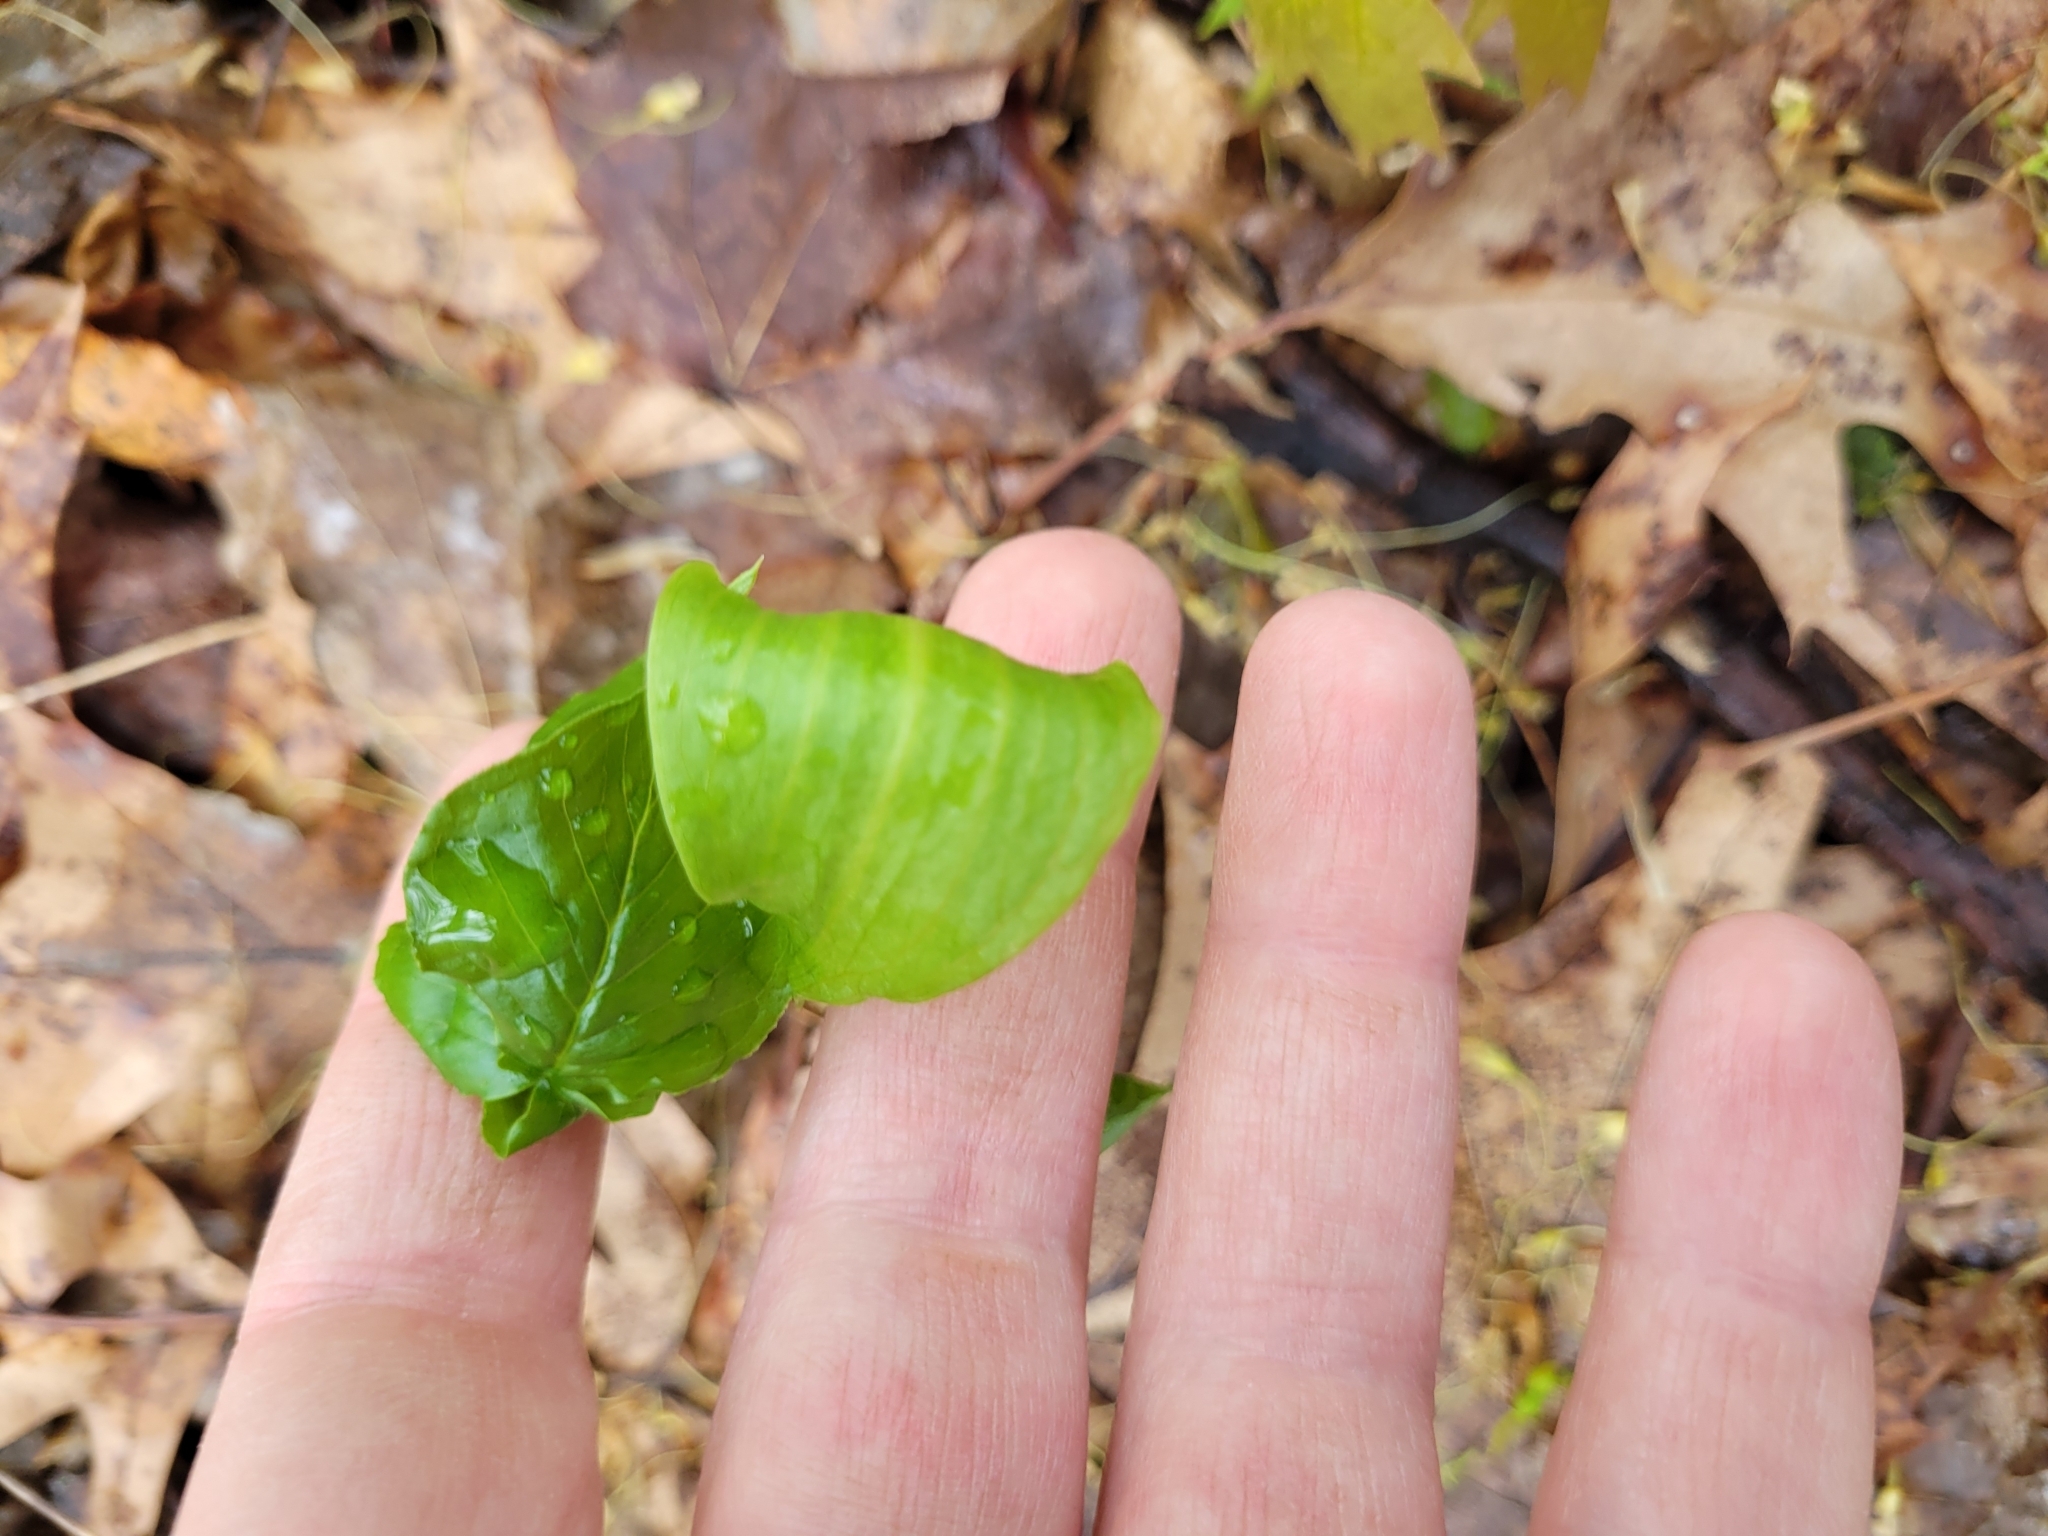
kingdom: Plantae
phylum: Tracheophyta
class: Liliopsida
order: Alismatales
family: Araceae
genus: Arisaema
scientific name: Arisaema triphyllum
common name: Jack-in-the-pulpit
